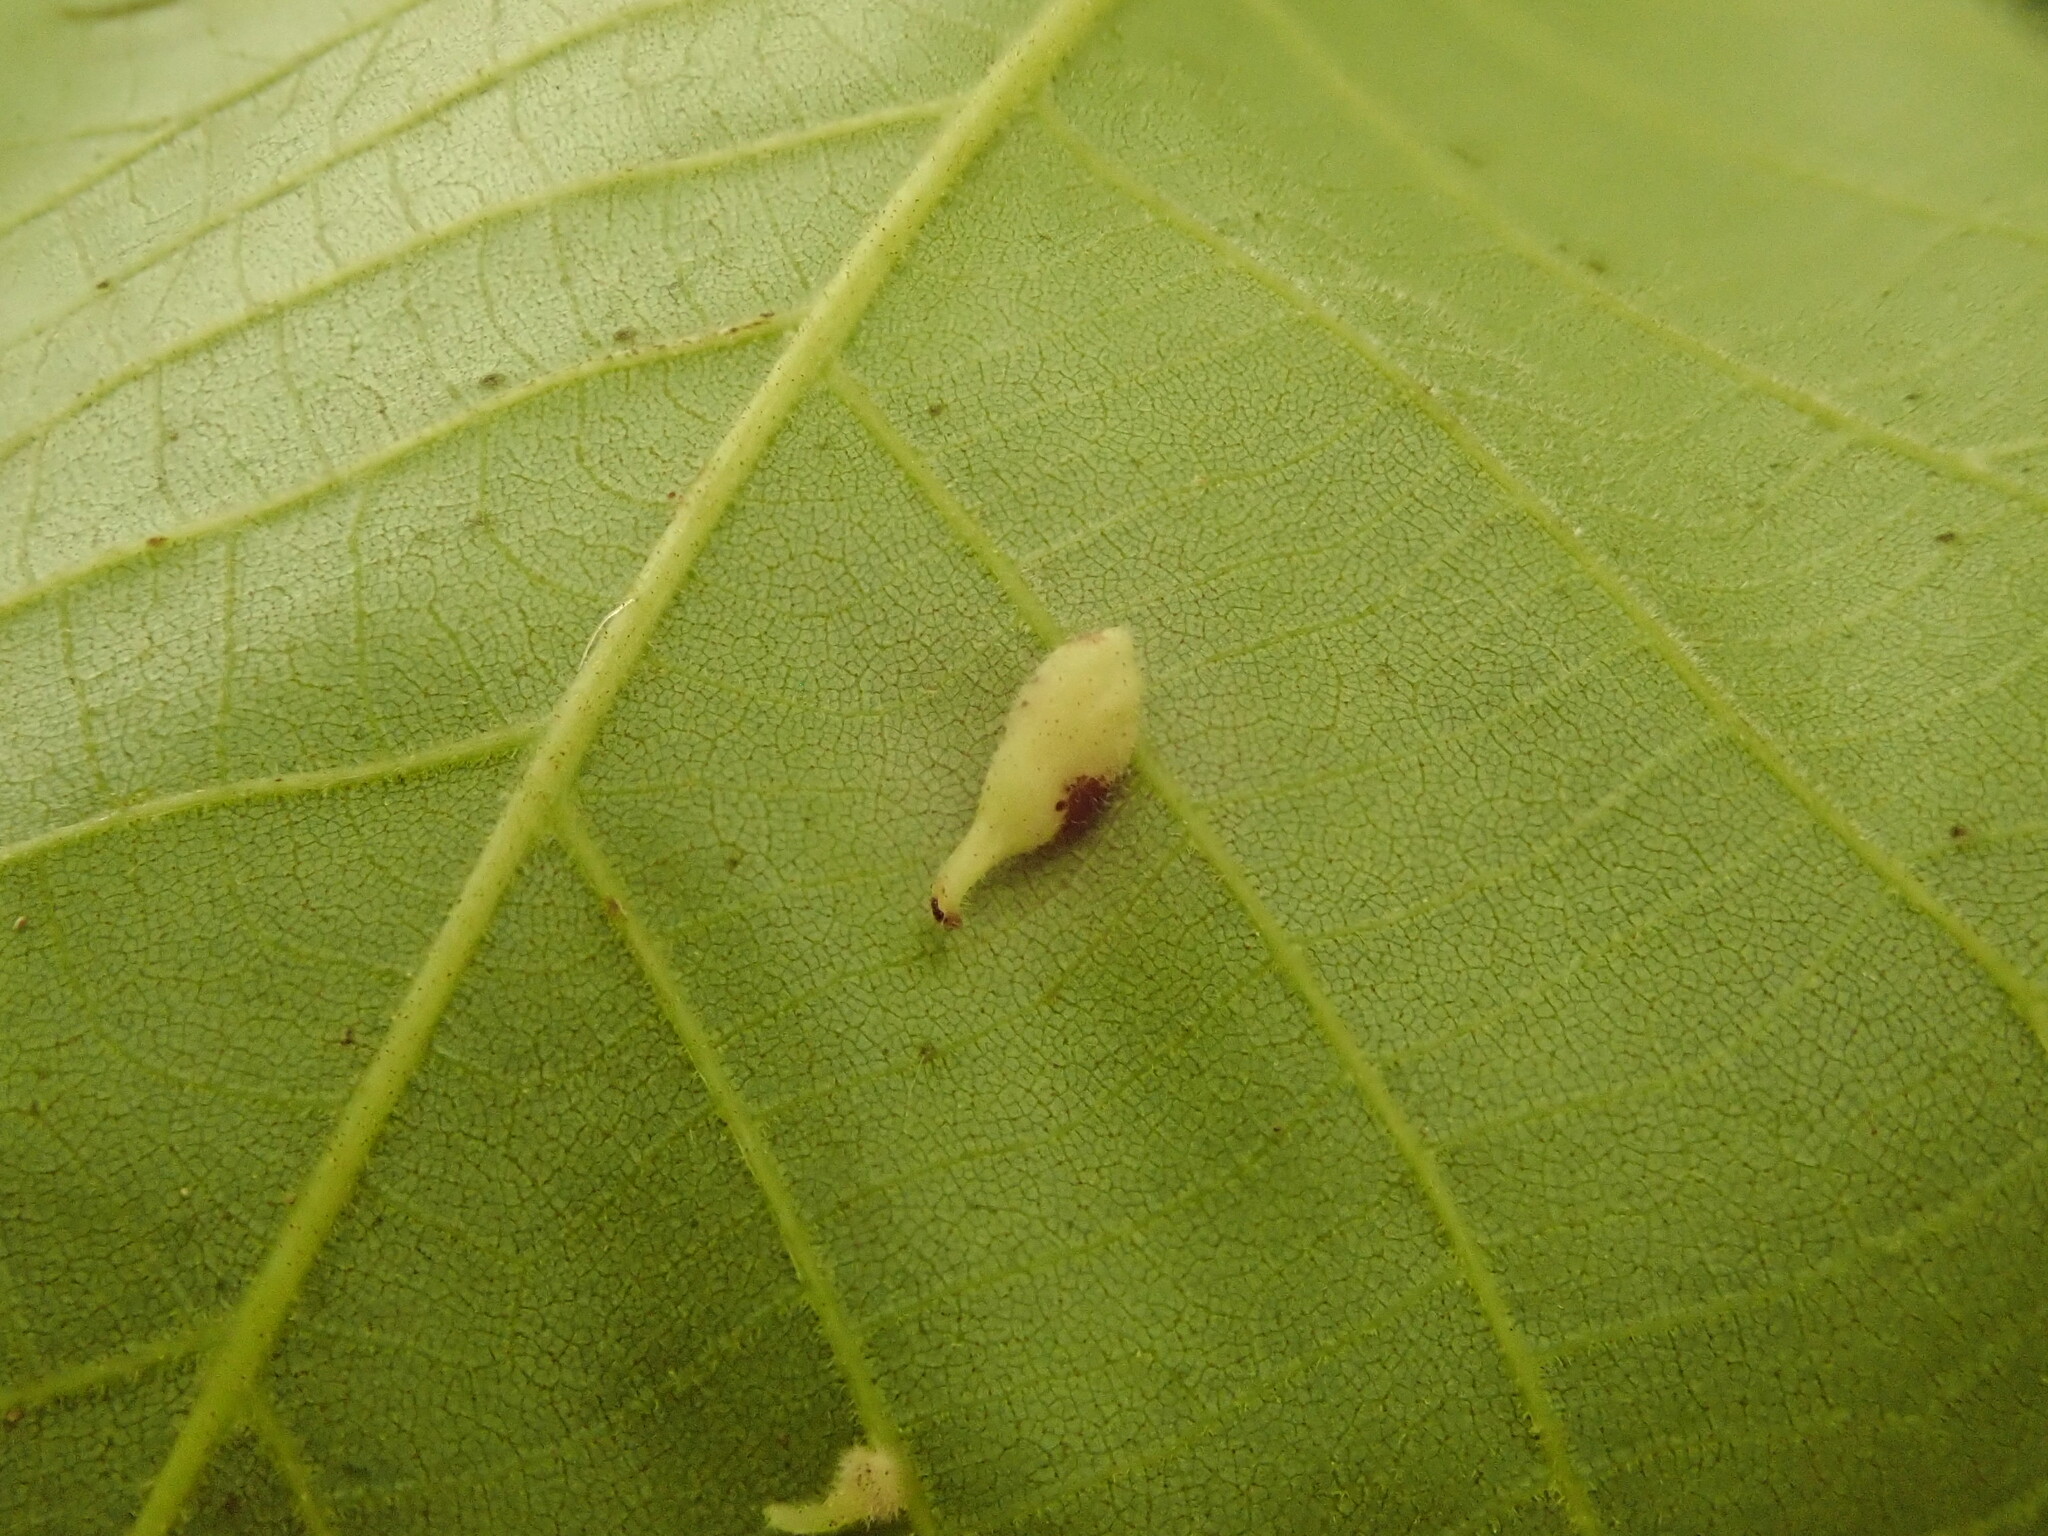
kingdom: Animalia
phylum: Arthropoda
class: Insecta
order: Diptera
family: Cecidomyiidae
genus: Caryomyia
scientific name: Caryomyia inclinata
